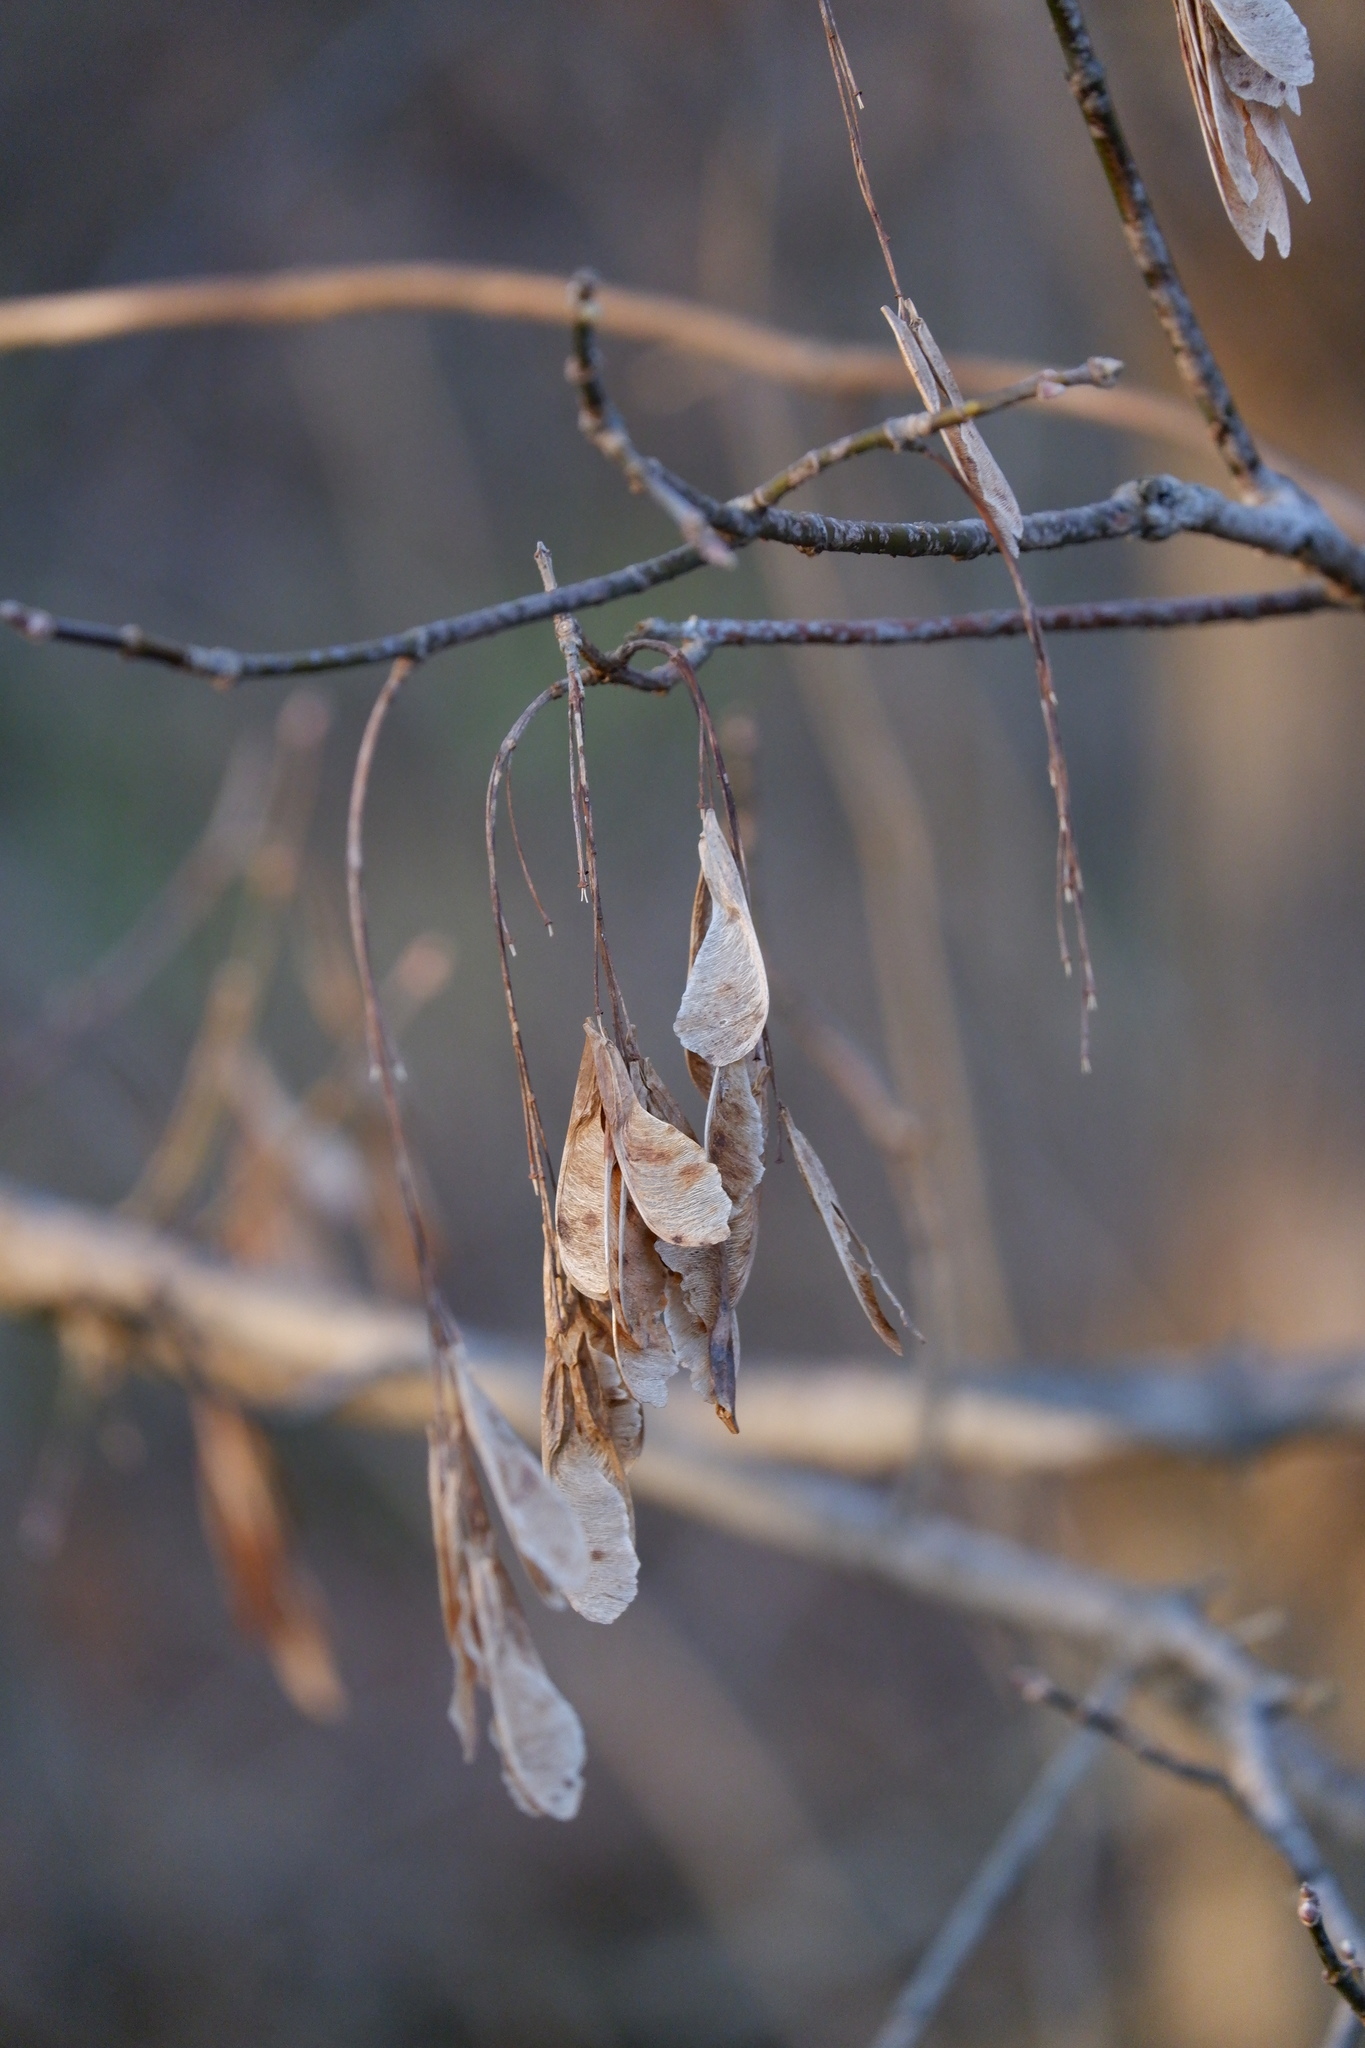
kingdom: Plantae
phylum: Tracheophyta
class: Magnoliopsida
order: Sapindales
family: Sapindaceae
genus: Acer
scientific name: Acer negundo
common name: Ashleaf maple
